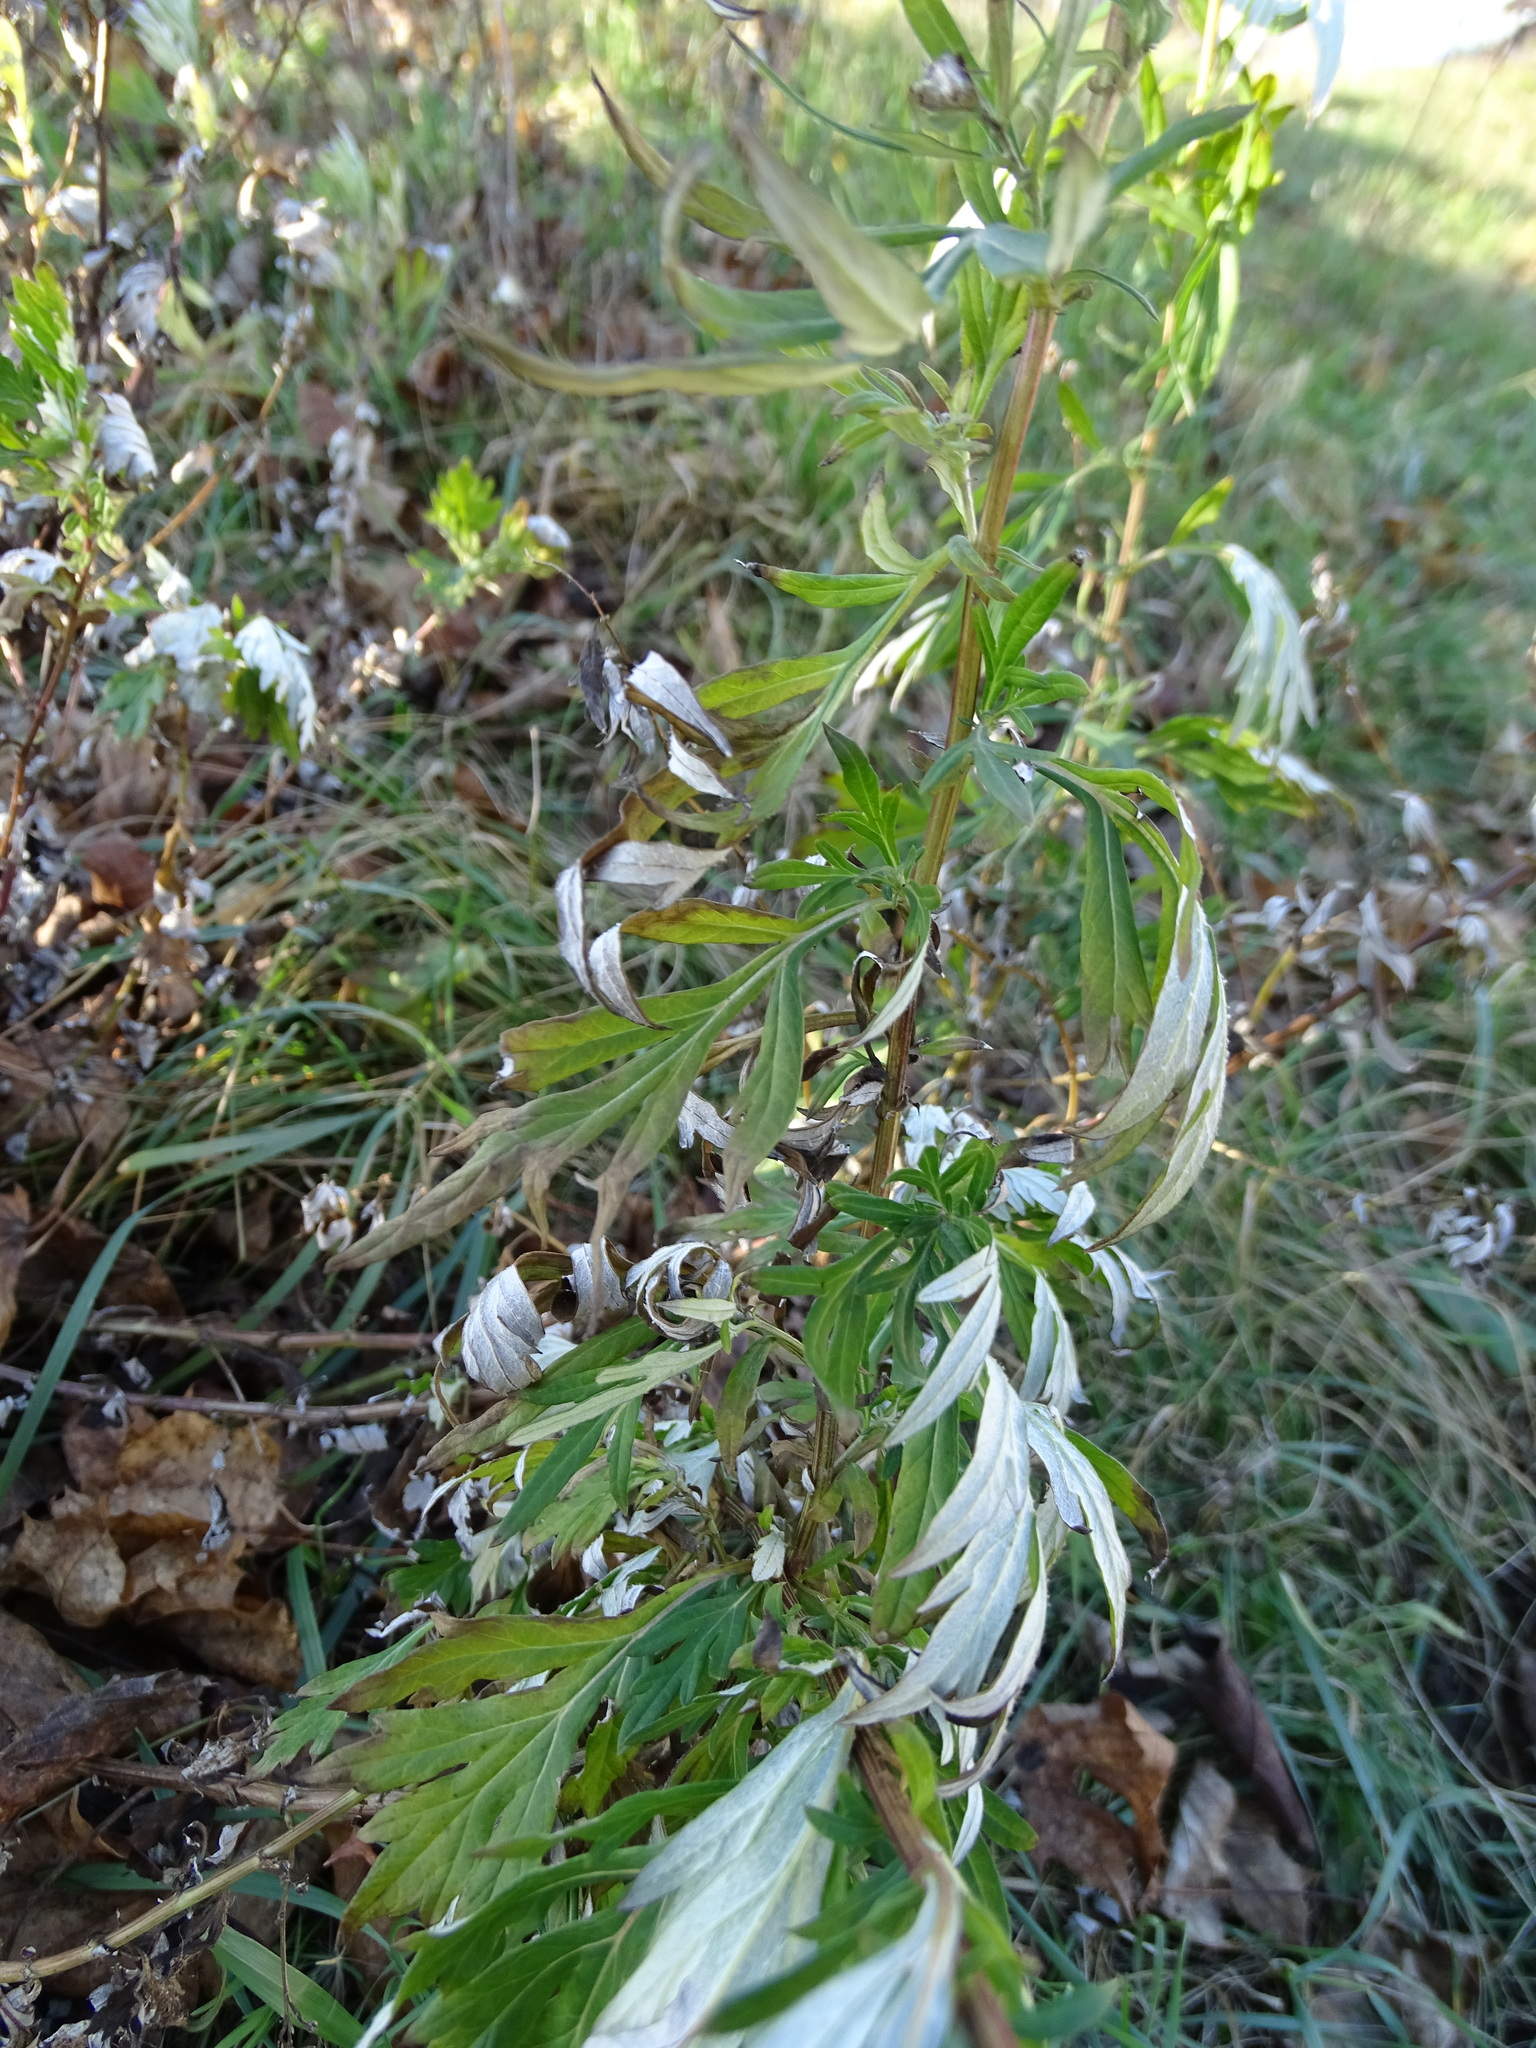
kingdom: Plantae
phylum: Tracheophyta
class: Magnoliopsida
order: Asterales
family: Asteraceae
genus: Artemisia
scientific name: Artemisia vulgaris
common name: Mugwort
